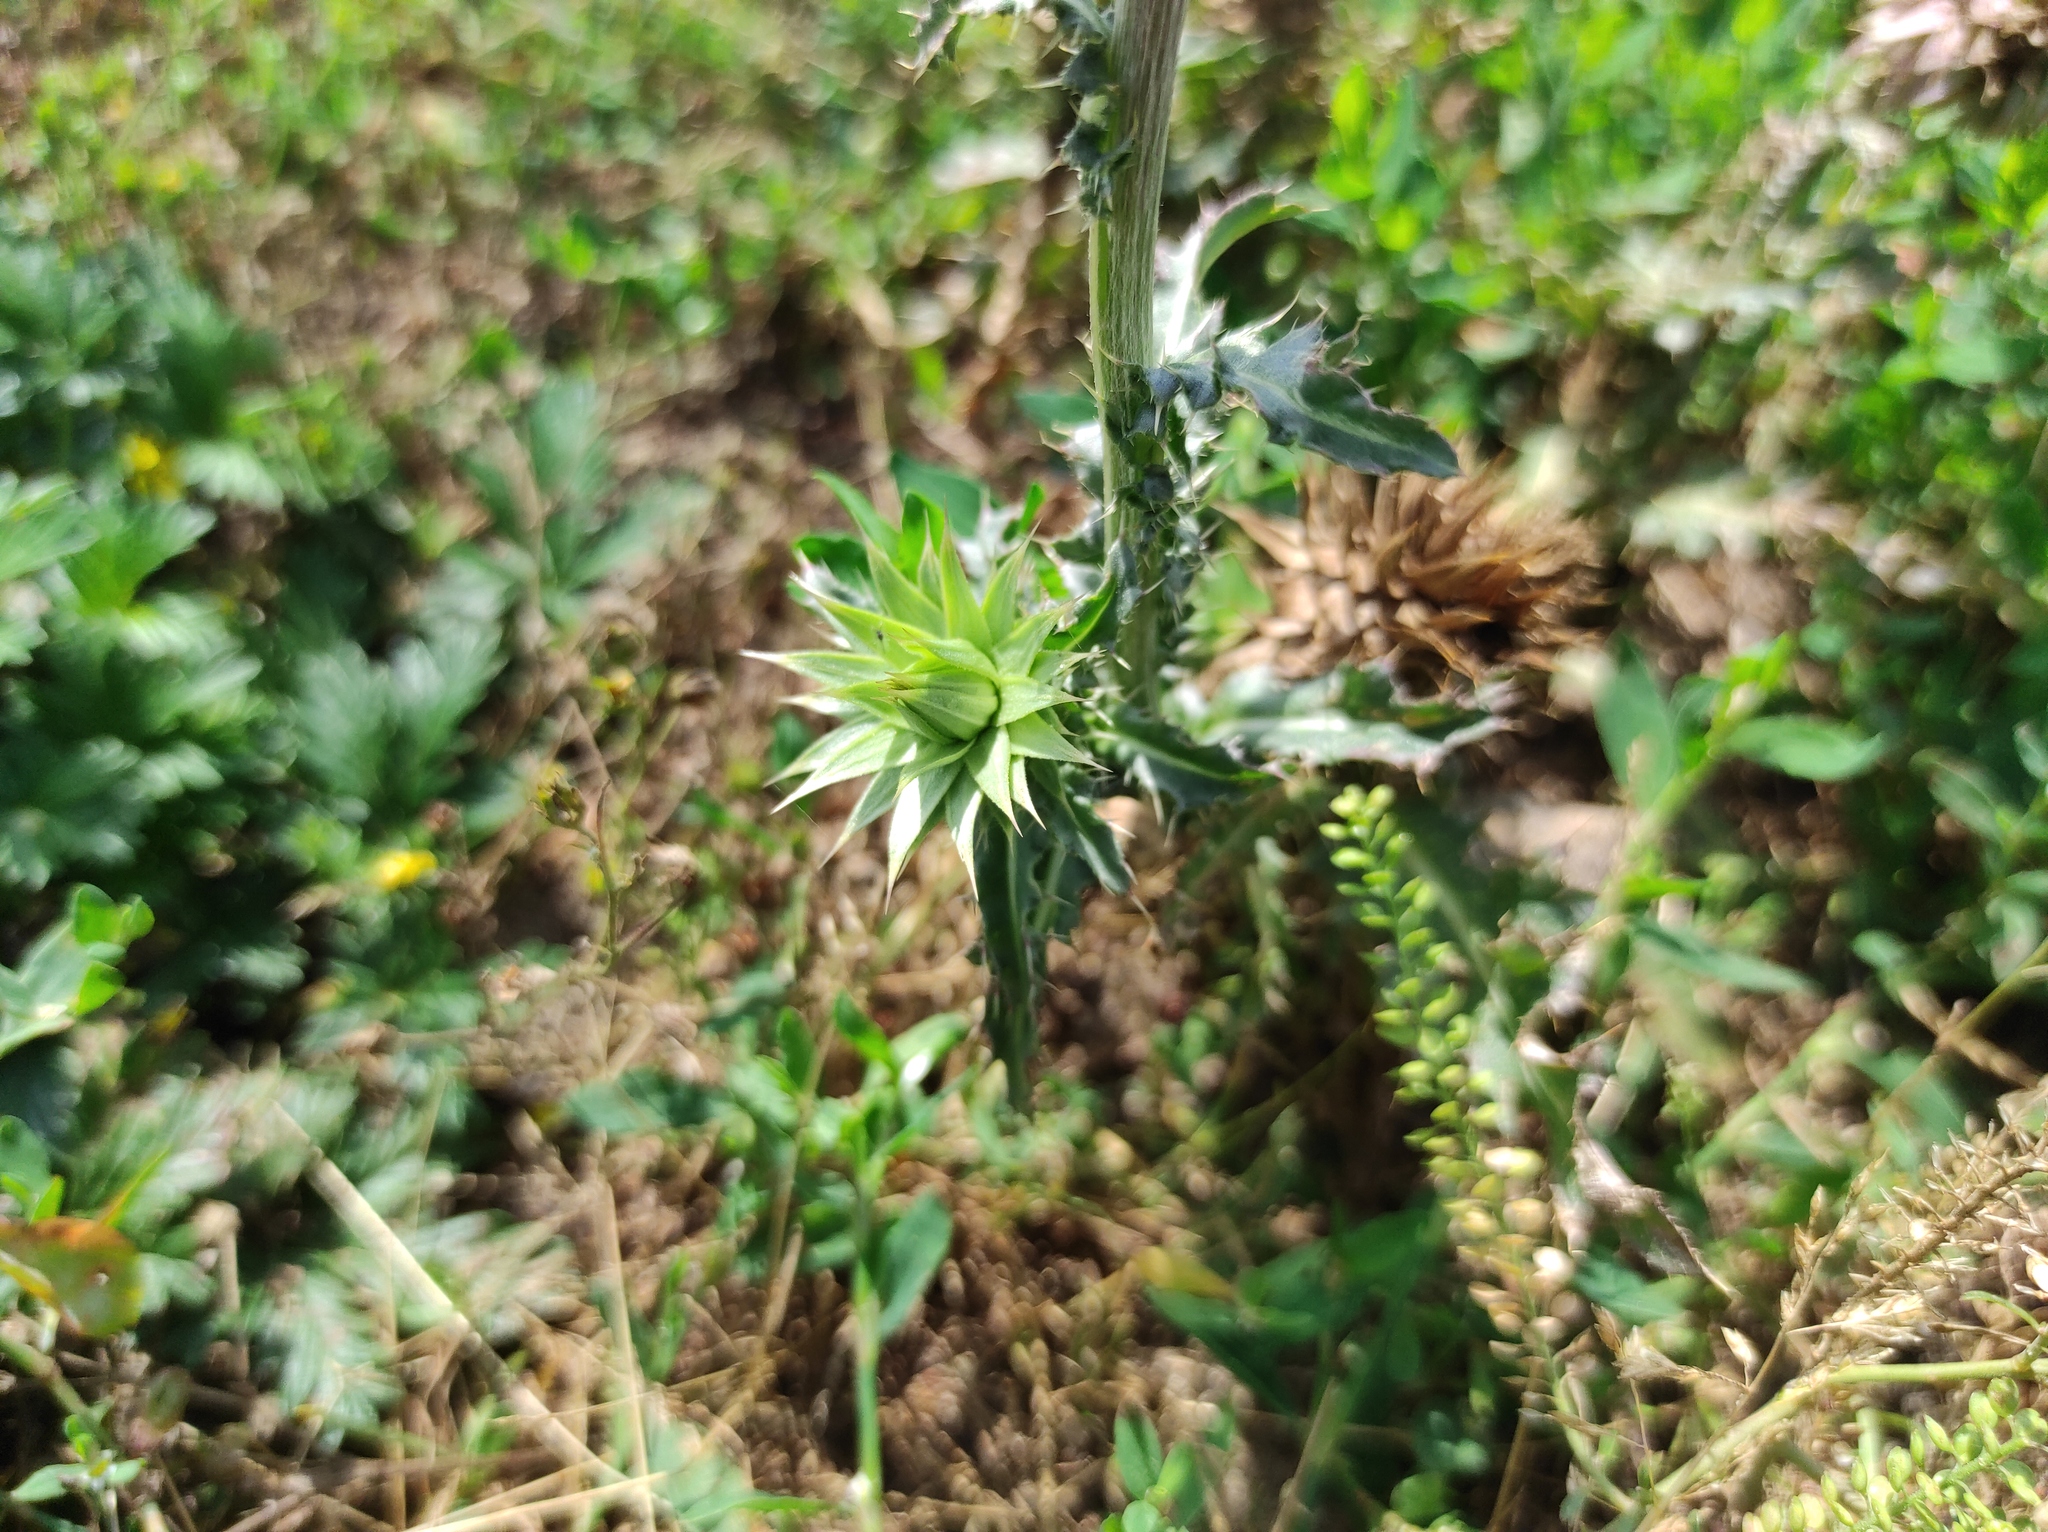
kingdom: Plantae
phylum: Tracheophyta
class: Magnoliopsida
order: Asterales
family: Asteraceae
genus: Carduus
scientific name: Carduus nutans
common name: Musk thistle
